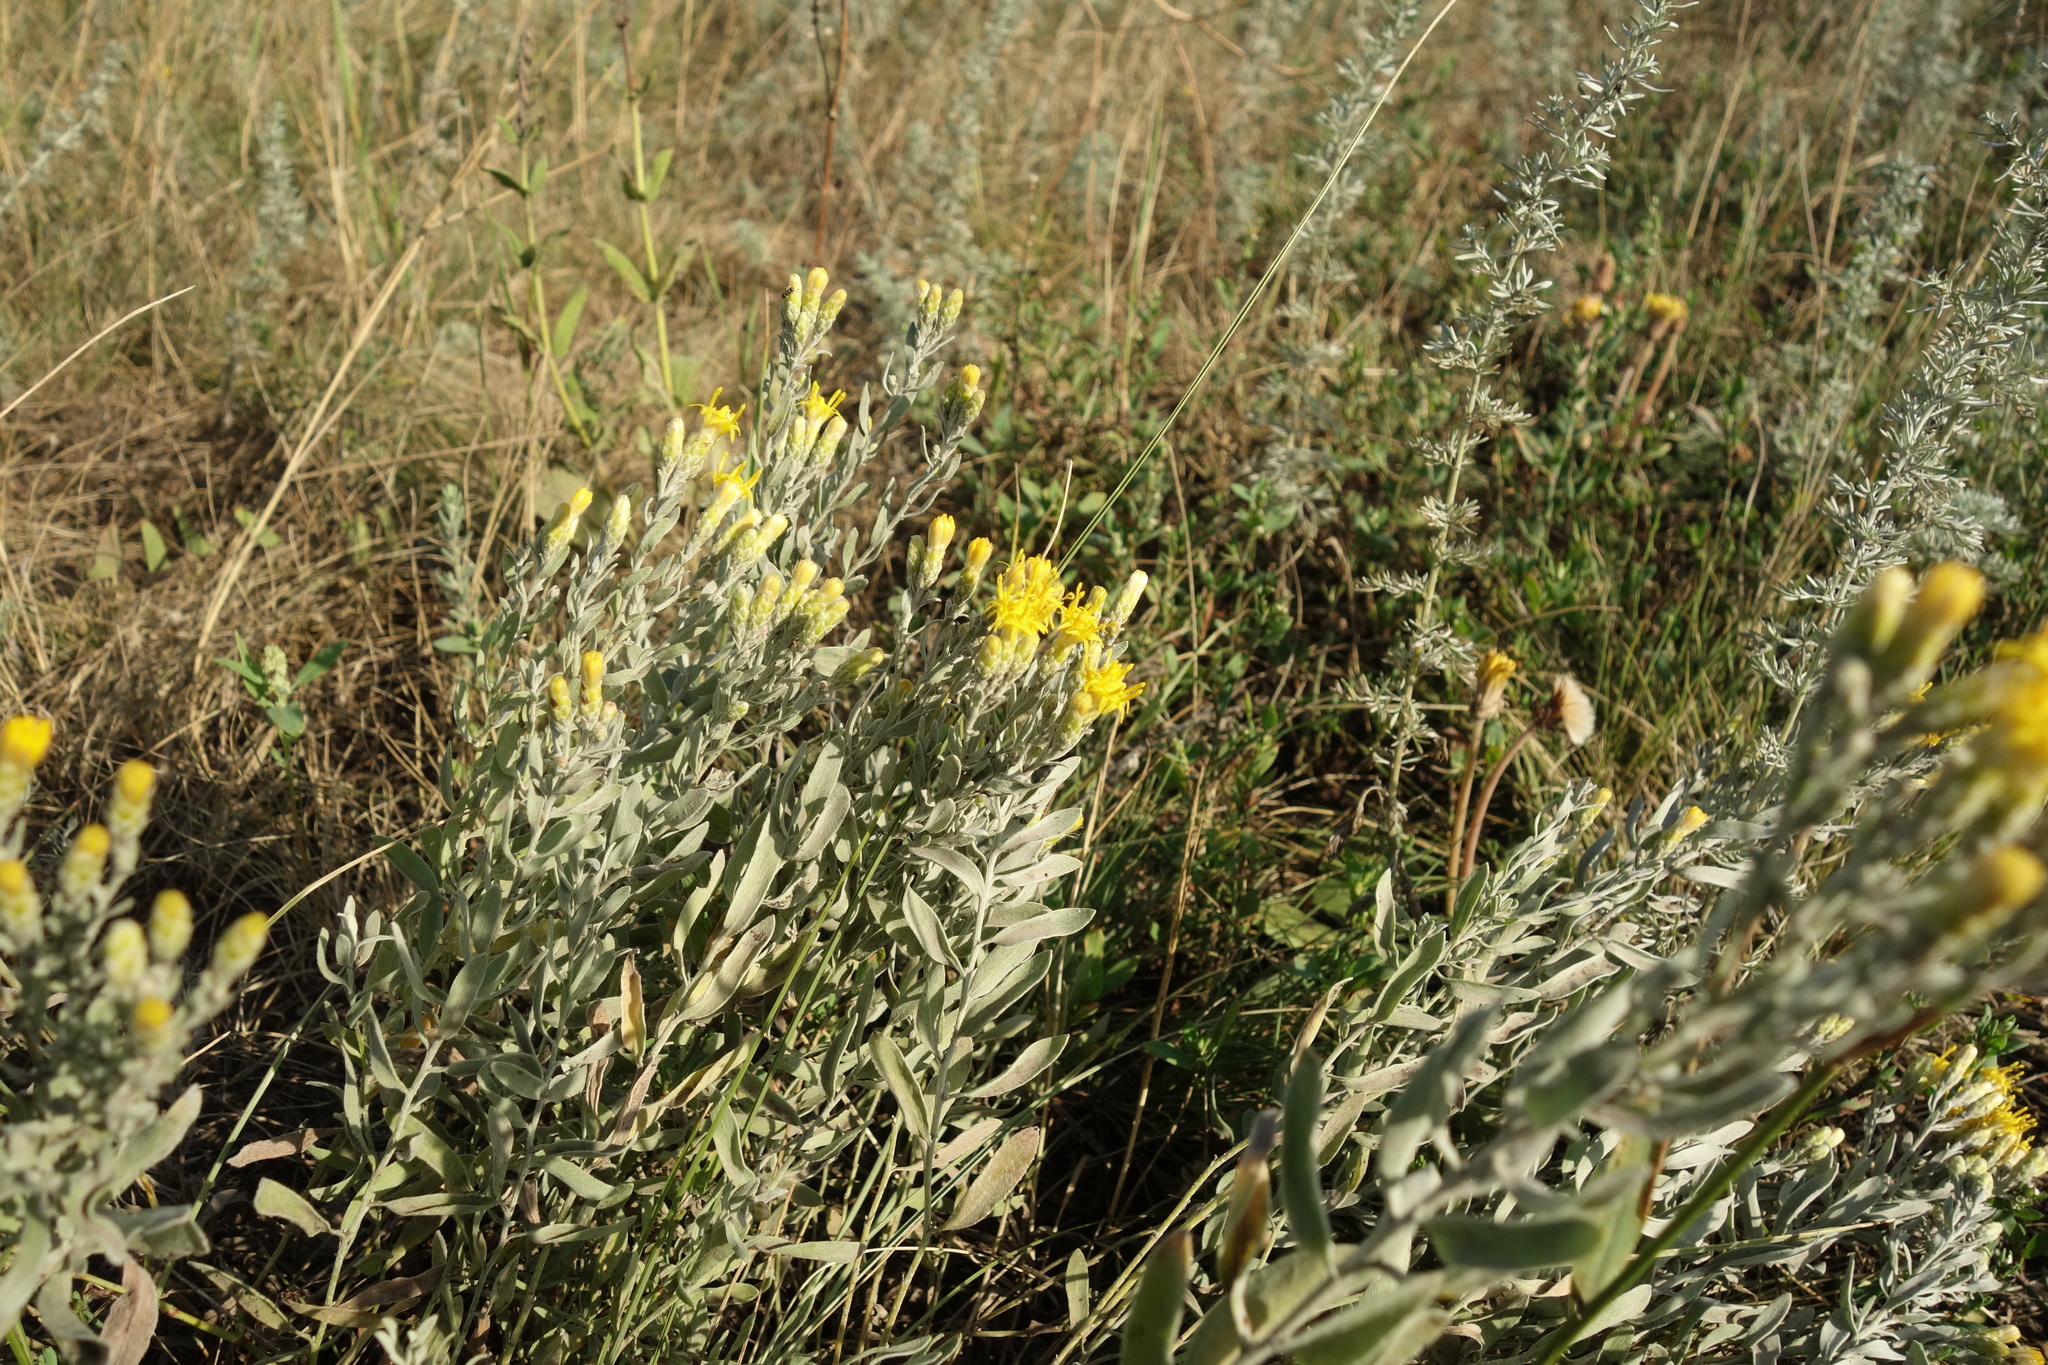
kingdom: Plantae
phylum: Tracheophyta
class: Magnoliopsida
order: Asterales
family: Asteraceae
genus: Galatella
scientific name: Galatella villosa
